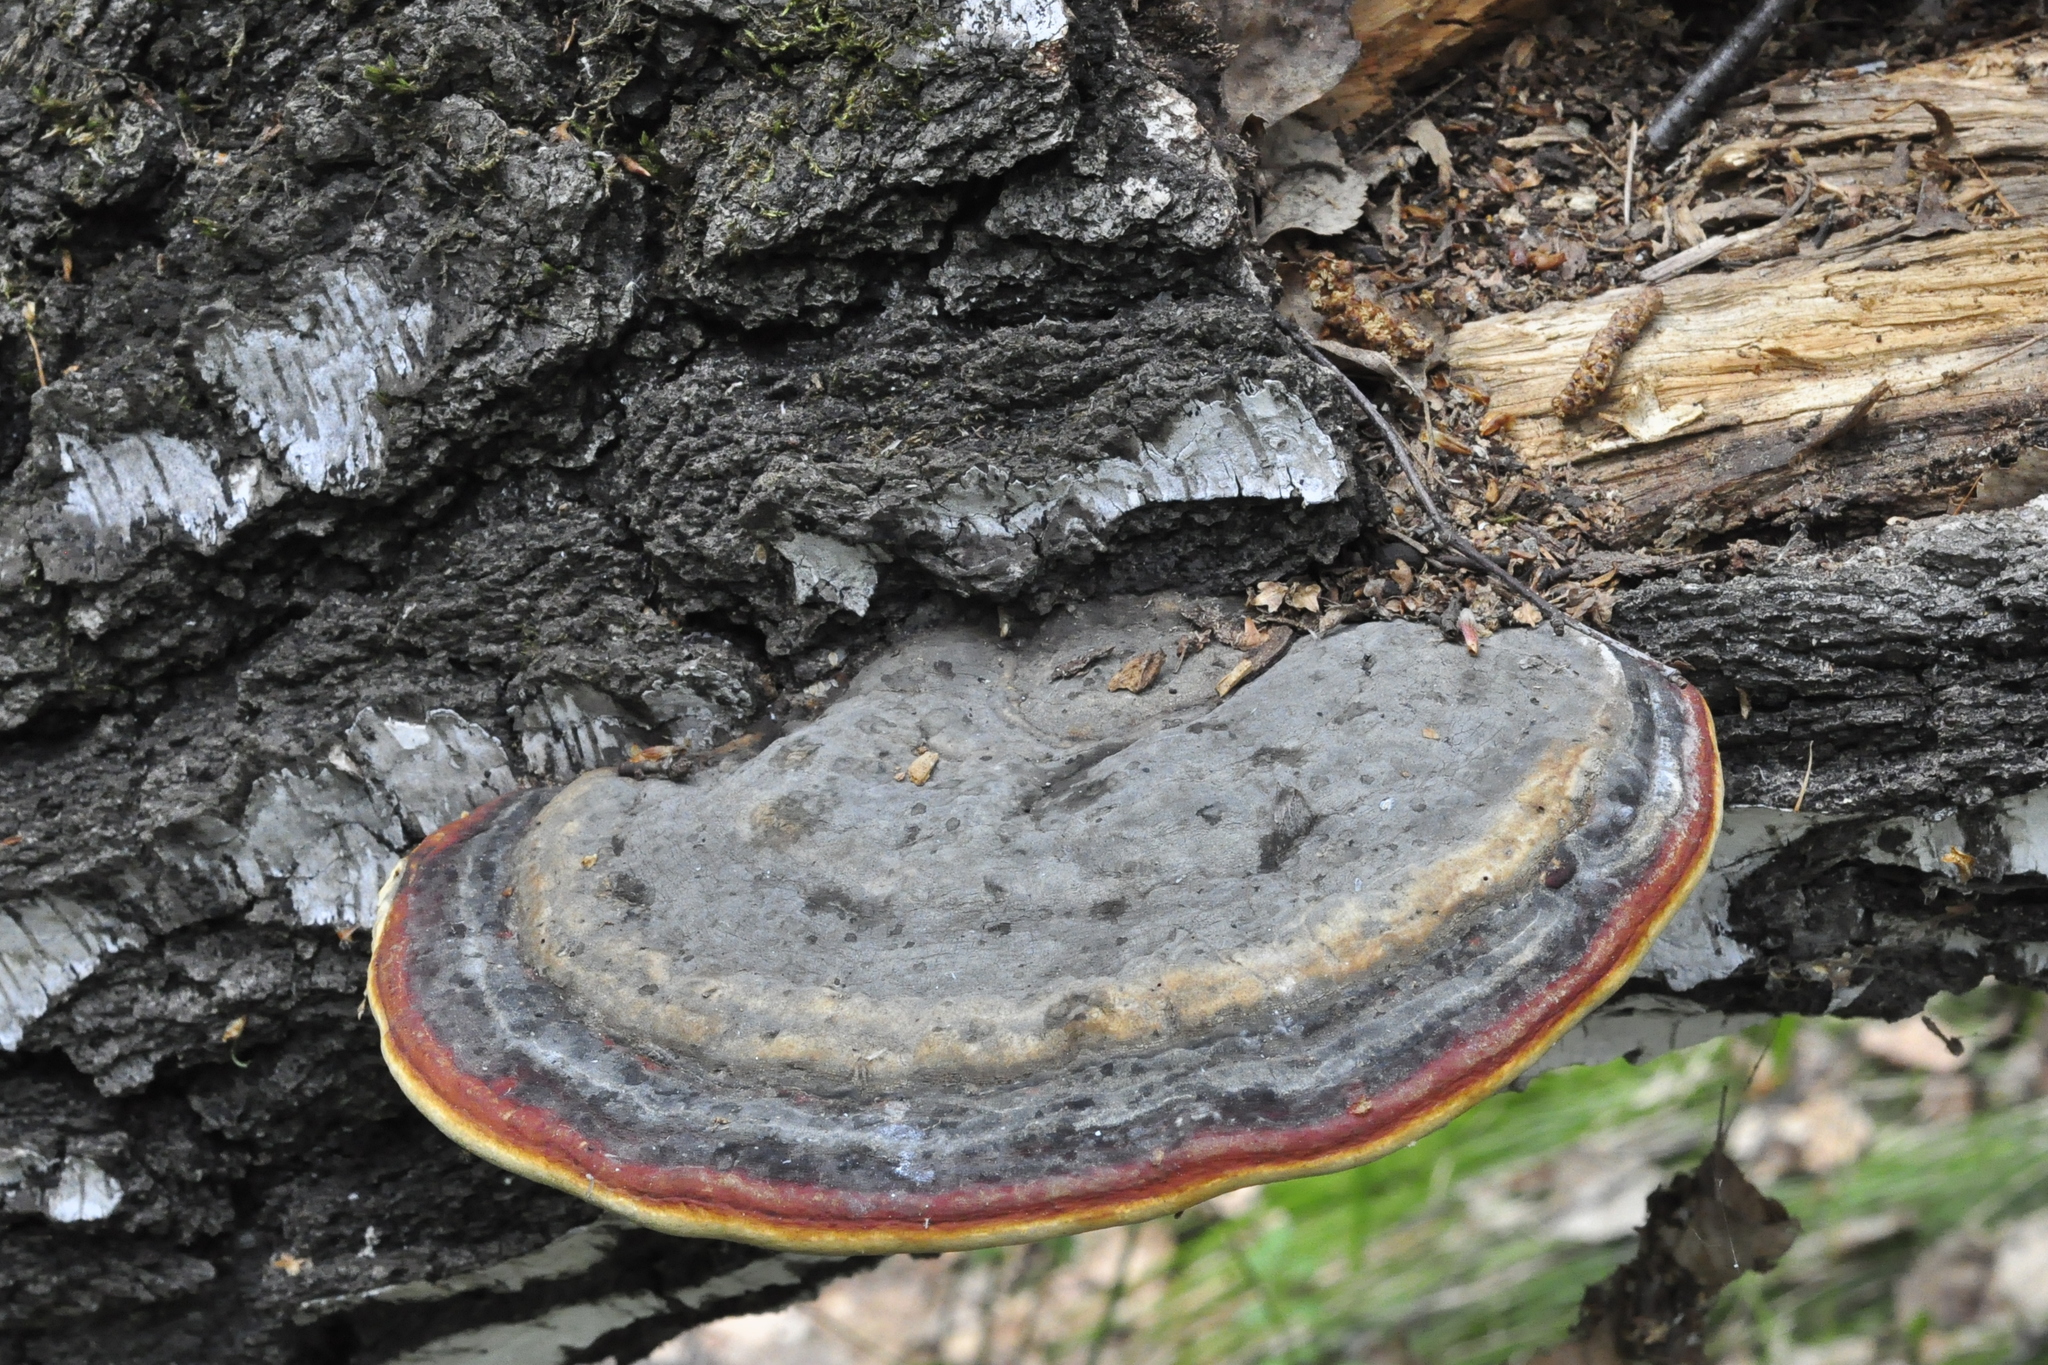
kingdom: Fungi
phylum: Basidiomycota
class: Agaricomycetes
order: Polyporales
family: Fomitopsidaceae
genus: Fomitopsis
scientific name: Fomitopsis pinicola
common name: Red-belted bracket
